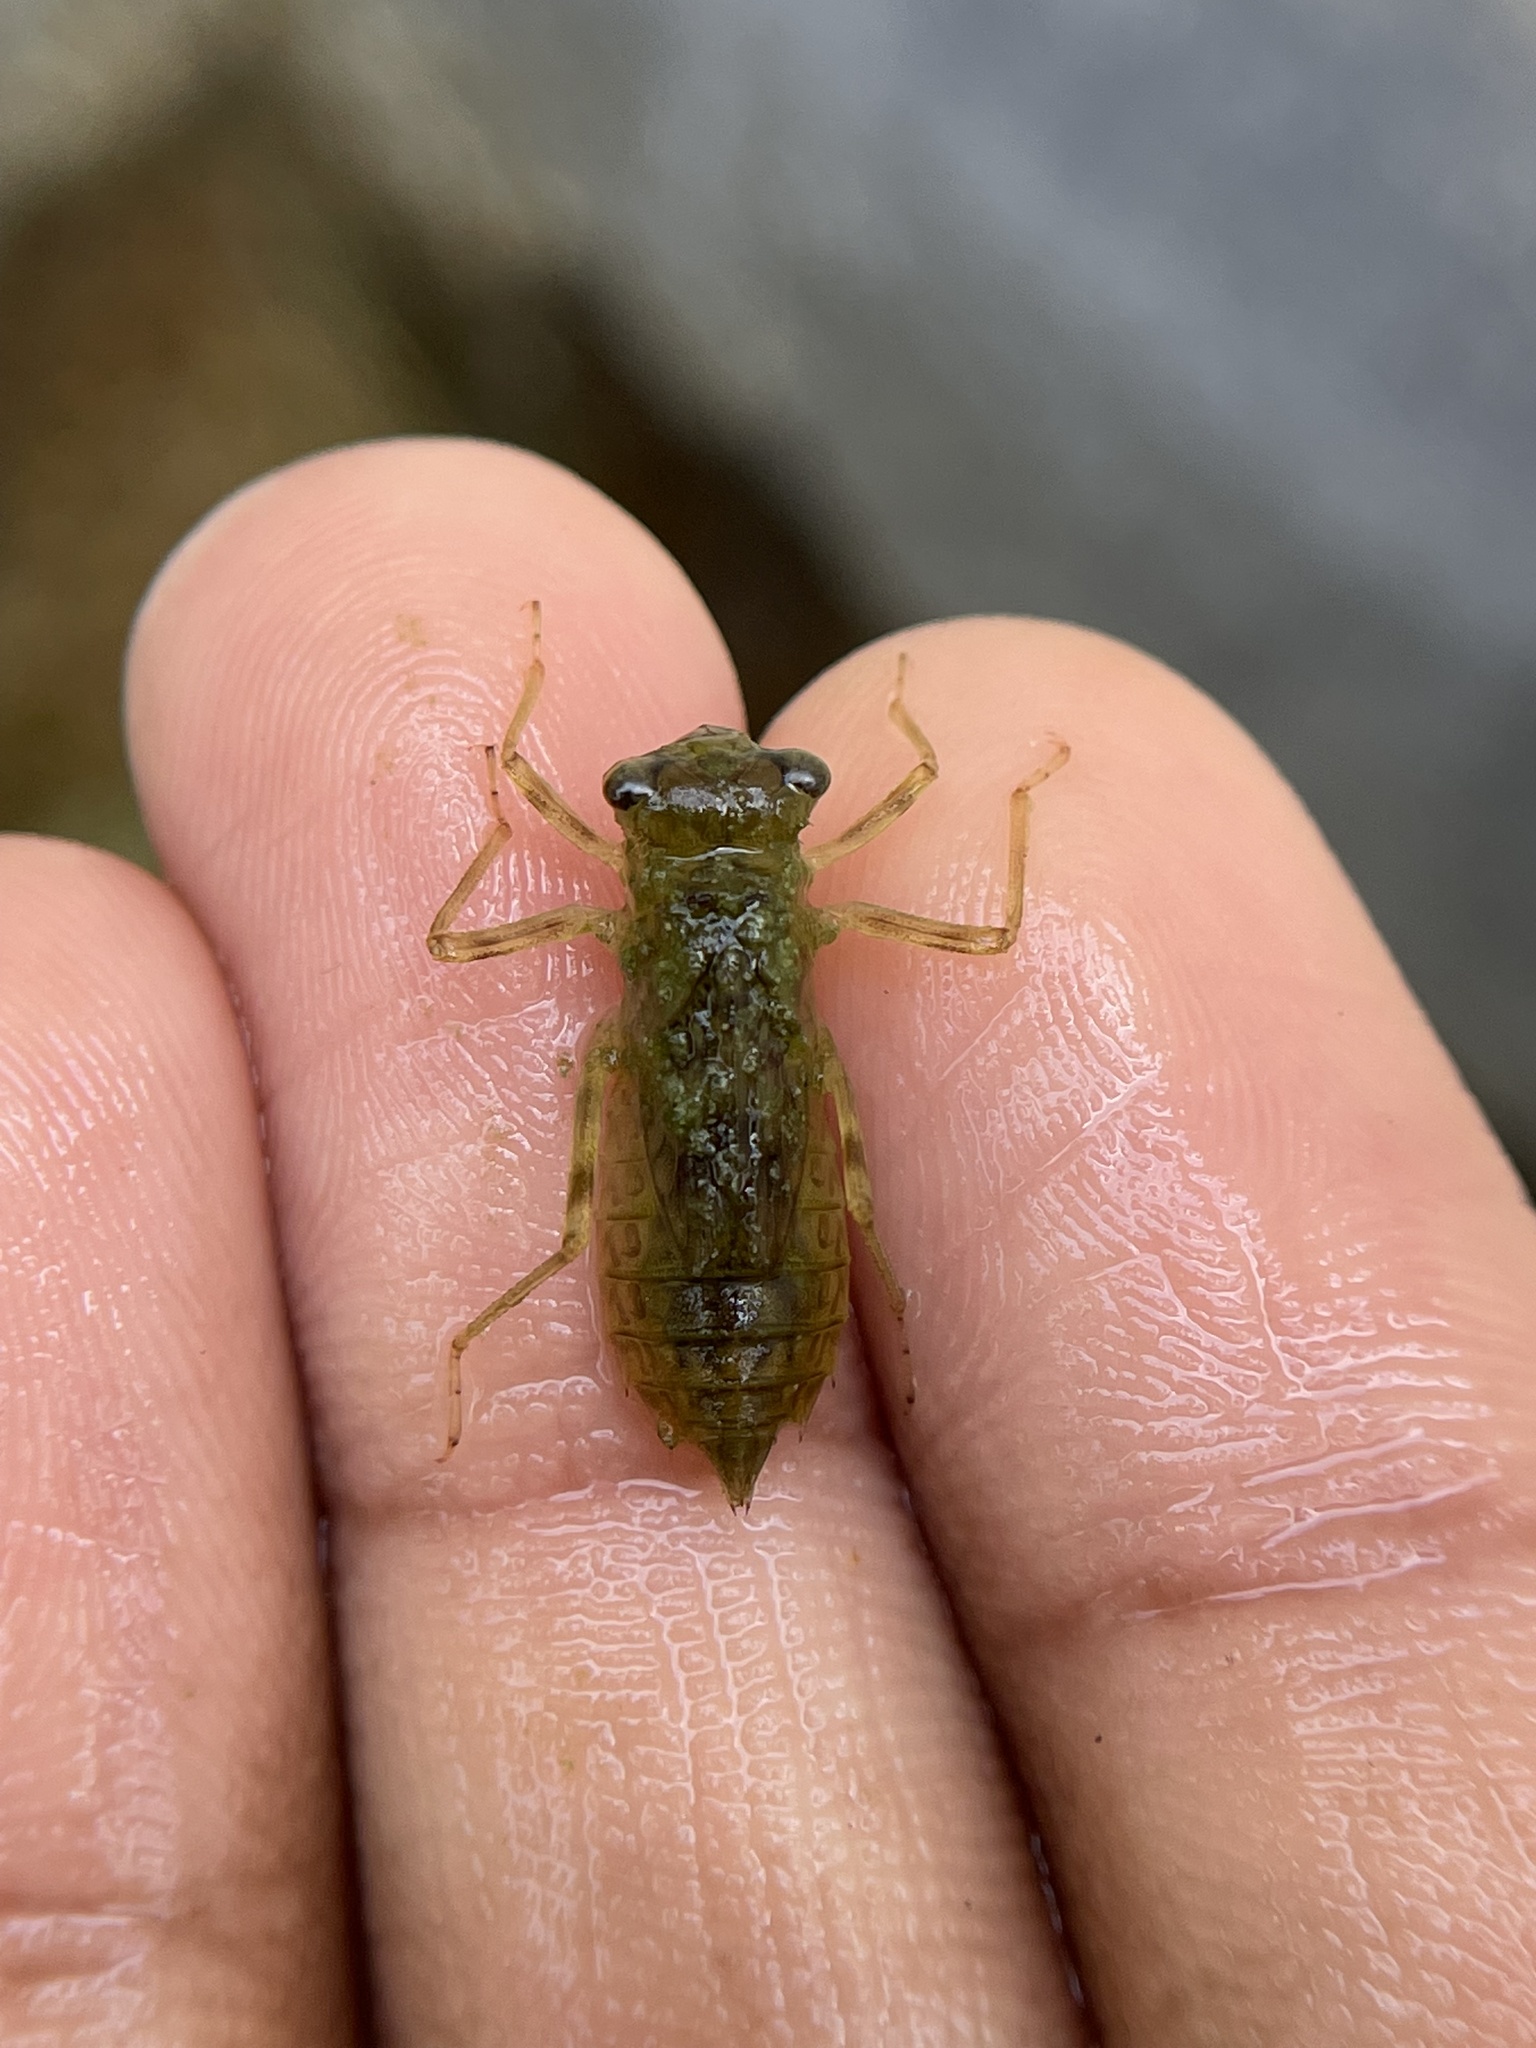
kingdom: Animalia
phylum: Arthropoda
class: Insecta
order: Odonata
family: Libellulidae
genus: Bradinopyga
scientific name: Bradinopyga geminata
